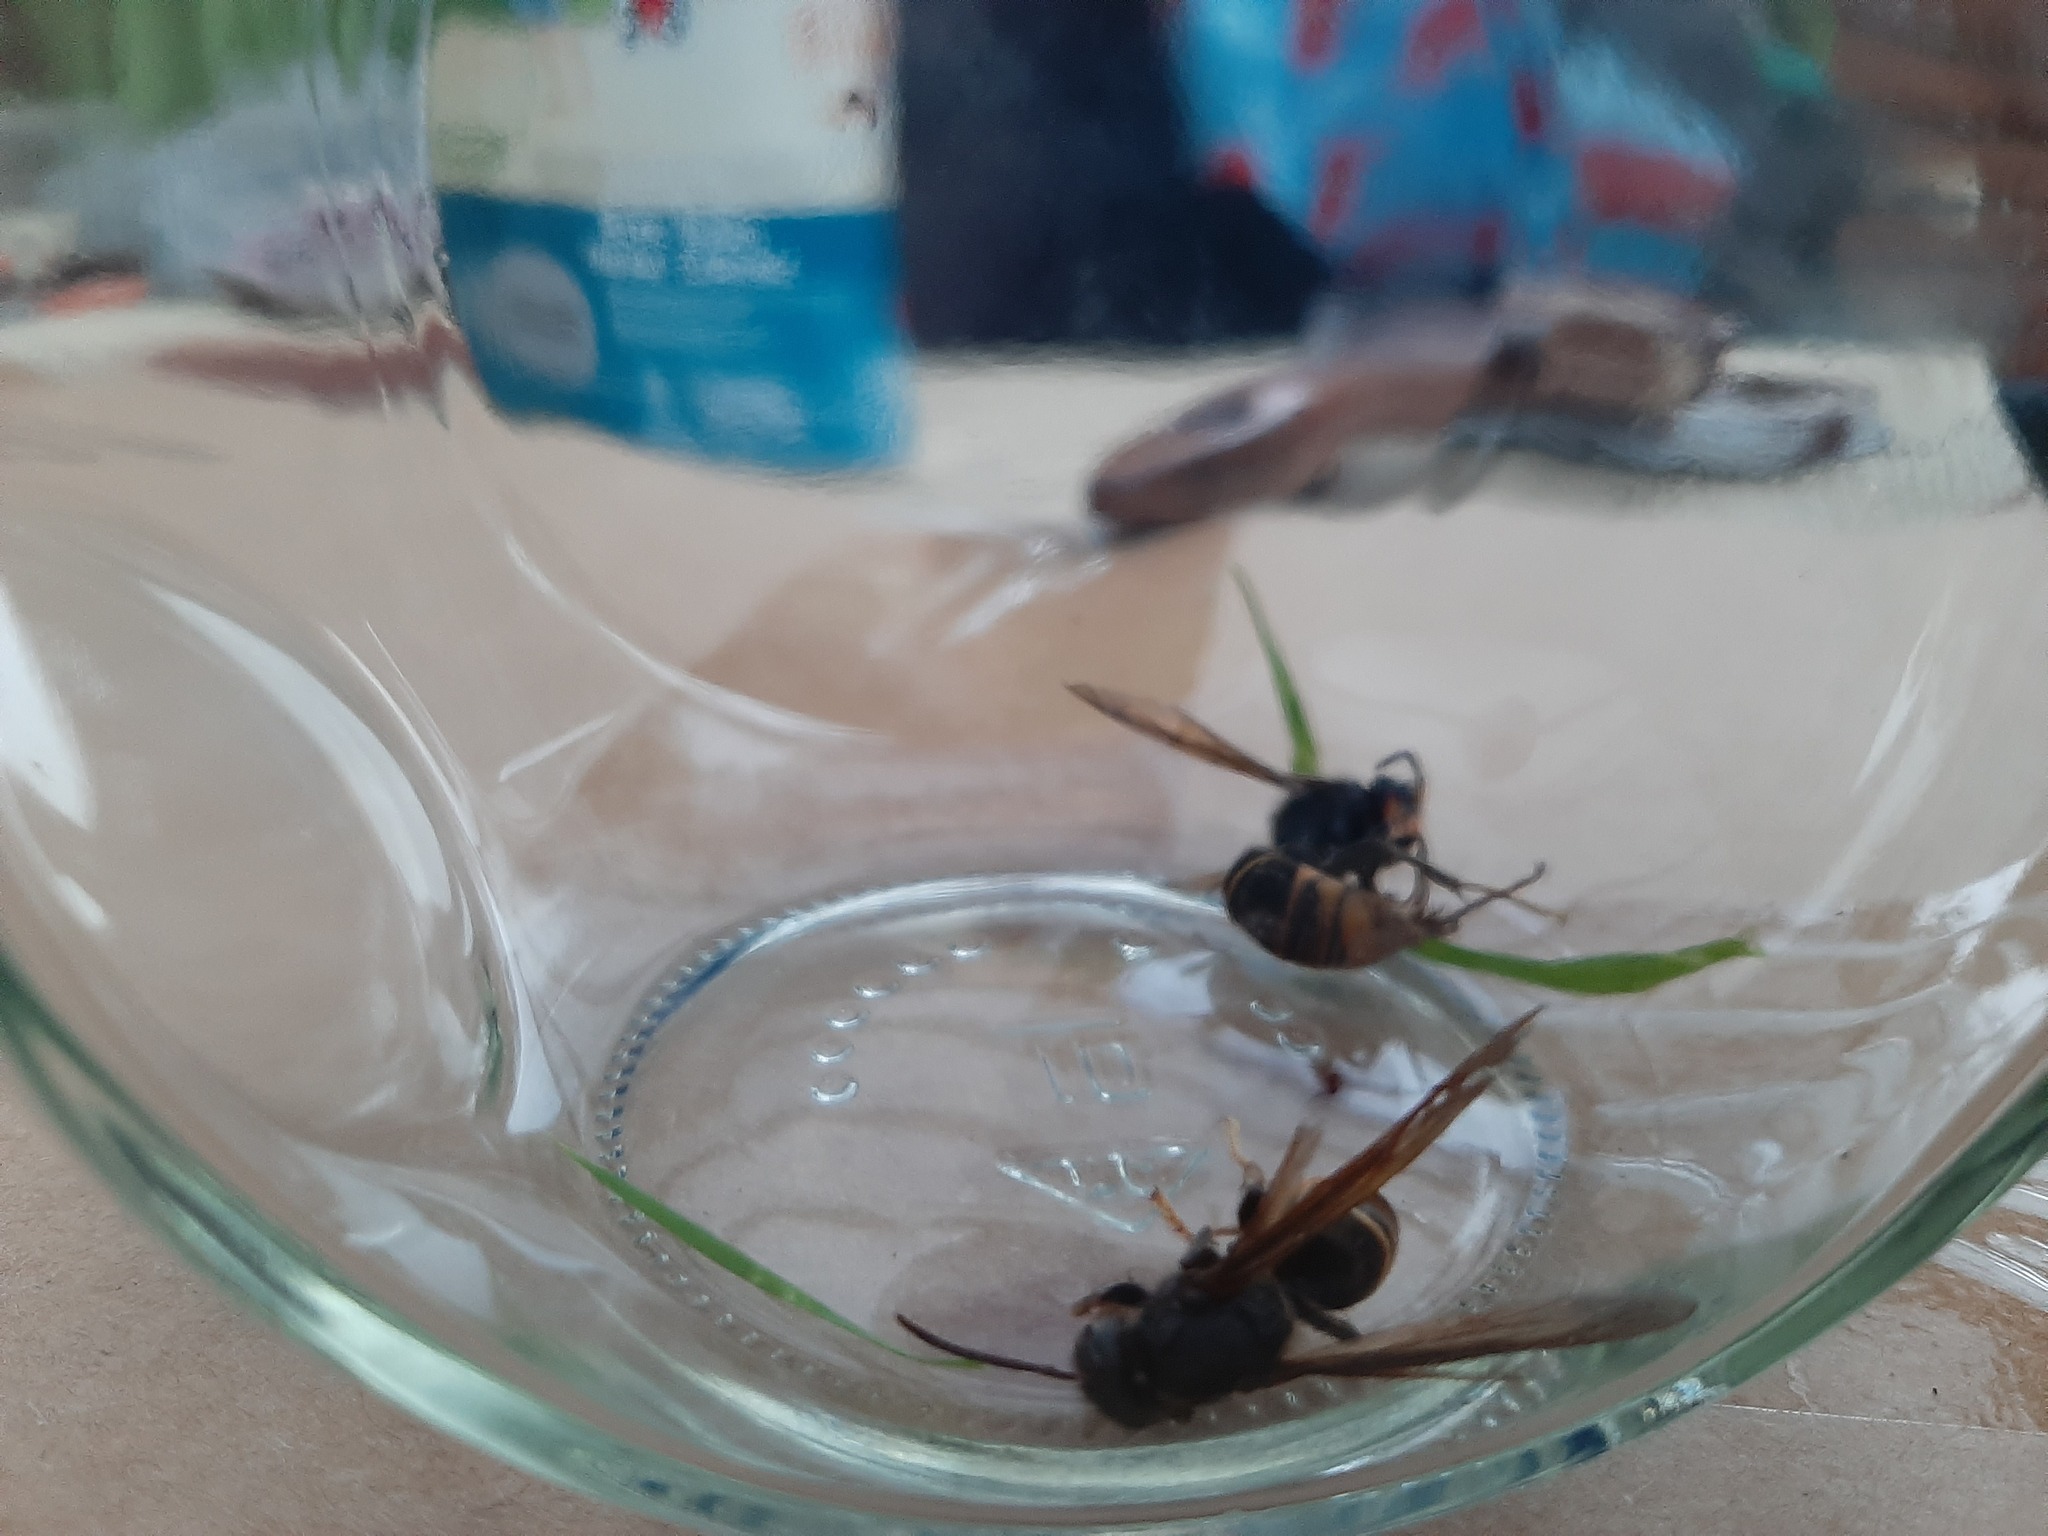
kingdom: Animalia
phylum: Arthropoda
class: Insecta
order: Hymenoptera
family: Vespidae
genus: Vespa
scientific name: Vespa velutina
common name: Asian hornet
